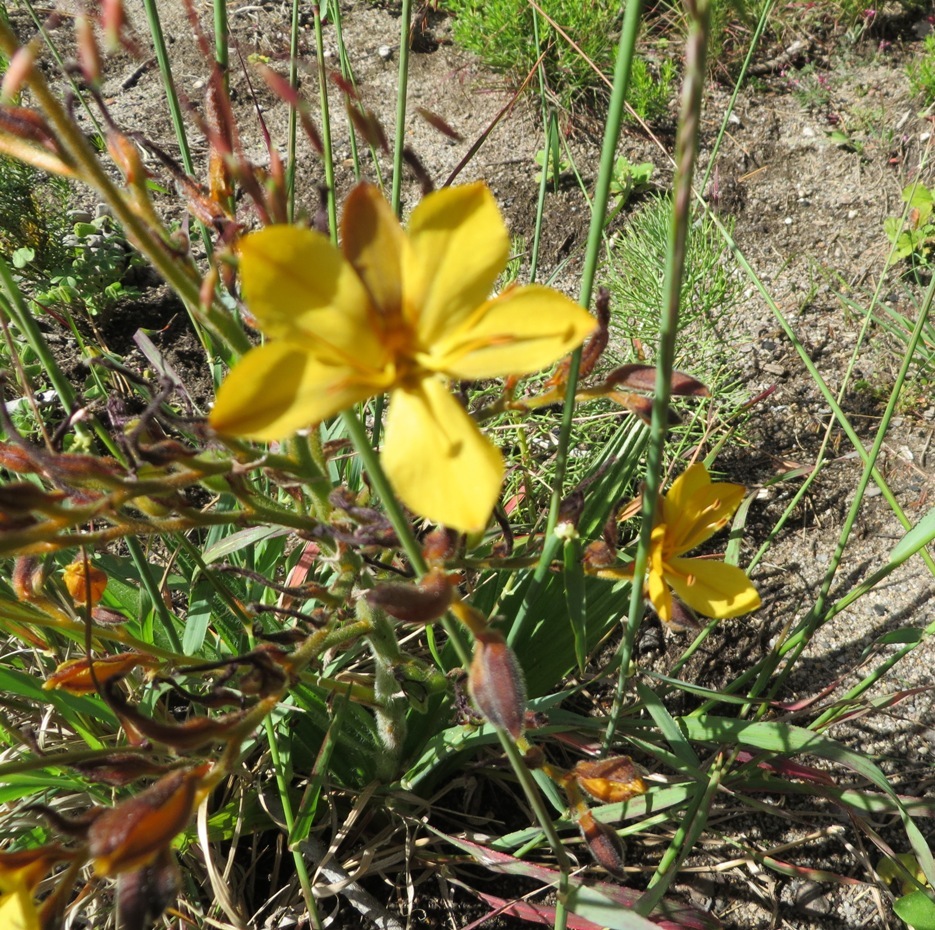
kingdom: Plantae
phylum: Tracheophyta
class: Liliopsida
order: Commelinales
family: Haemodoraceae
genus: Wachendorfia
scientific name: Wachendorfia paniculata
